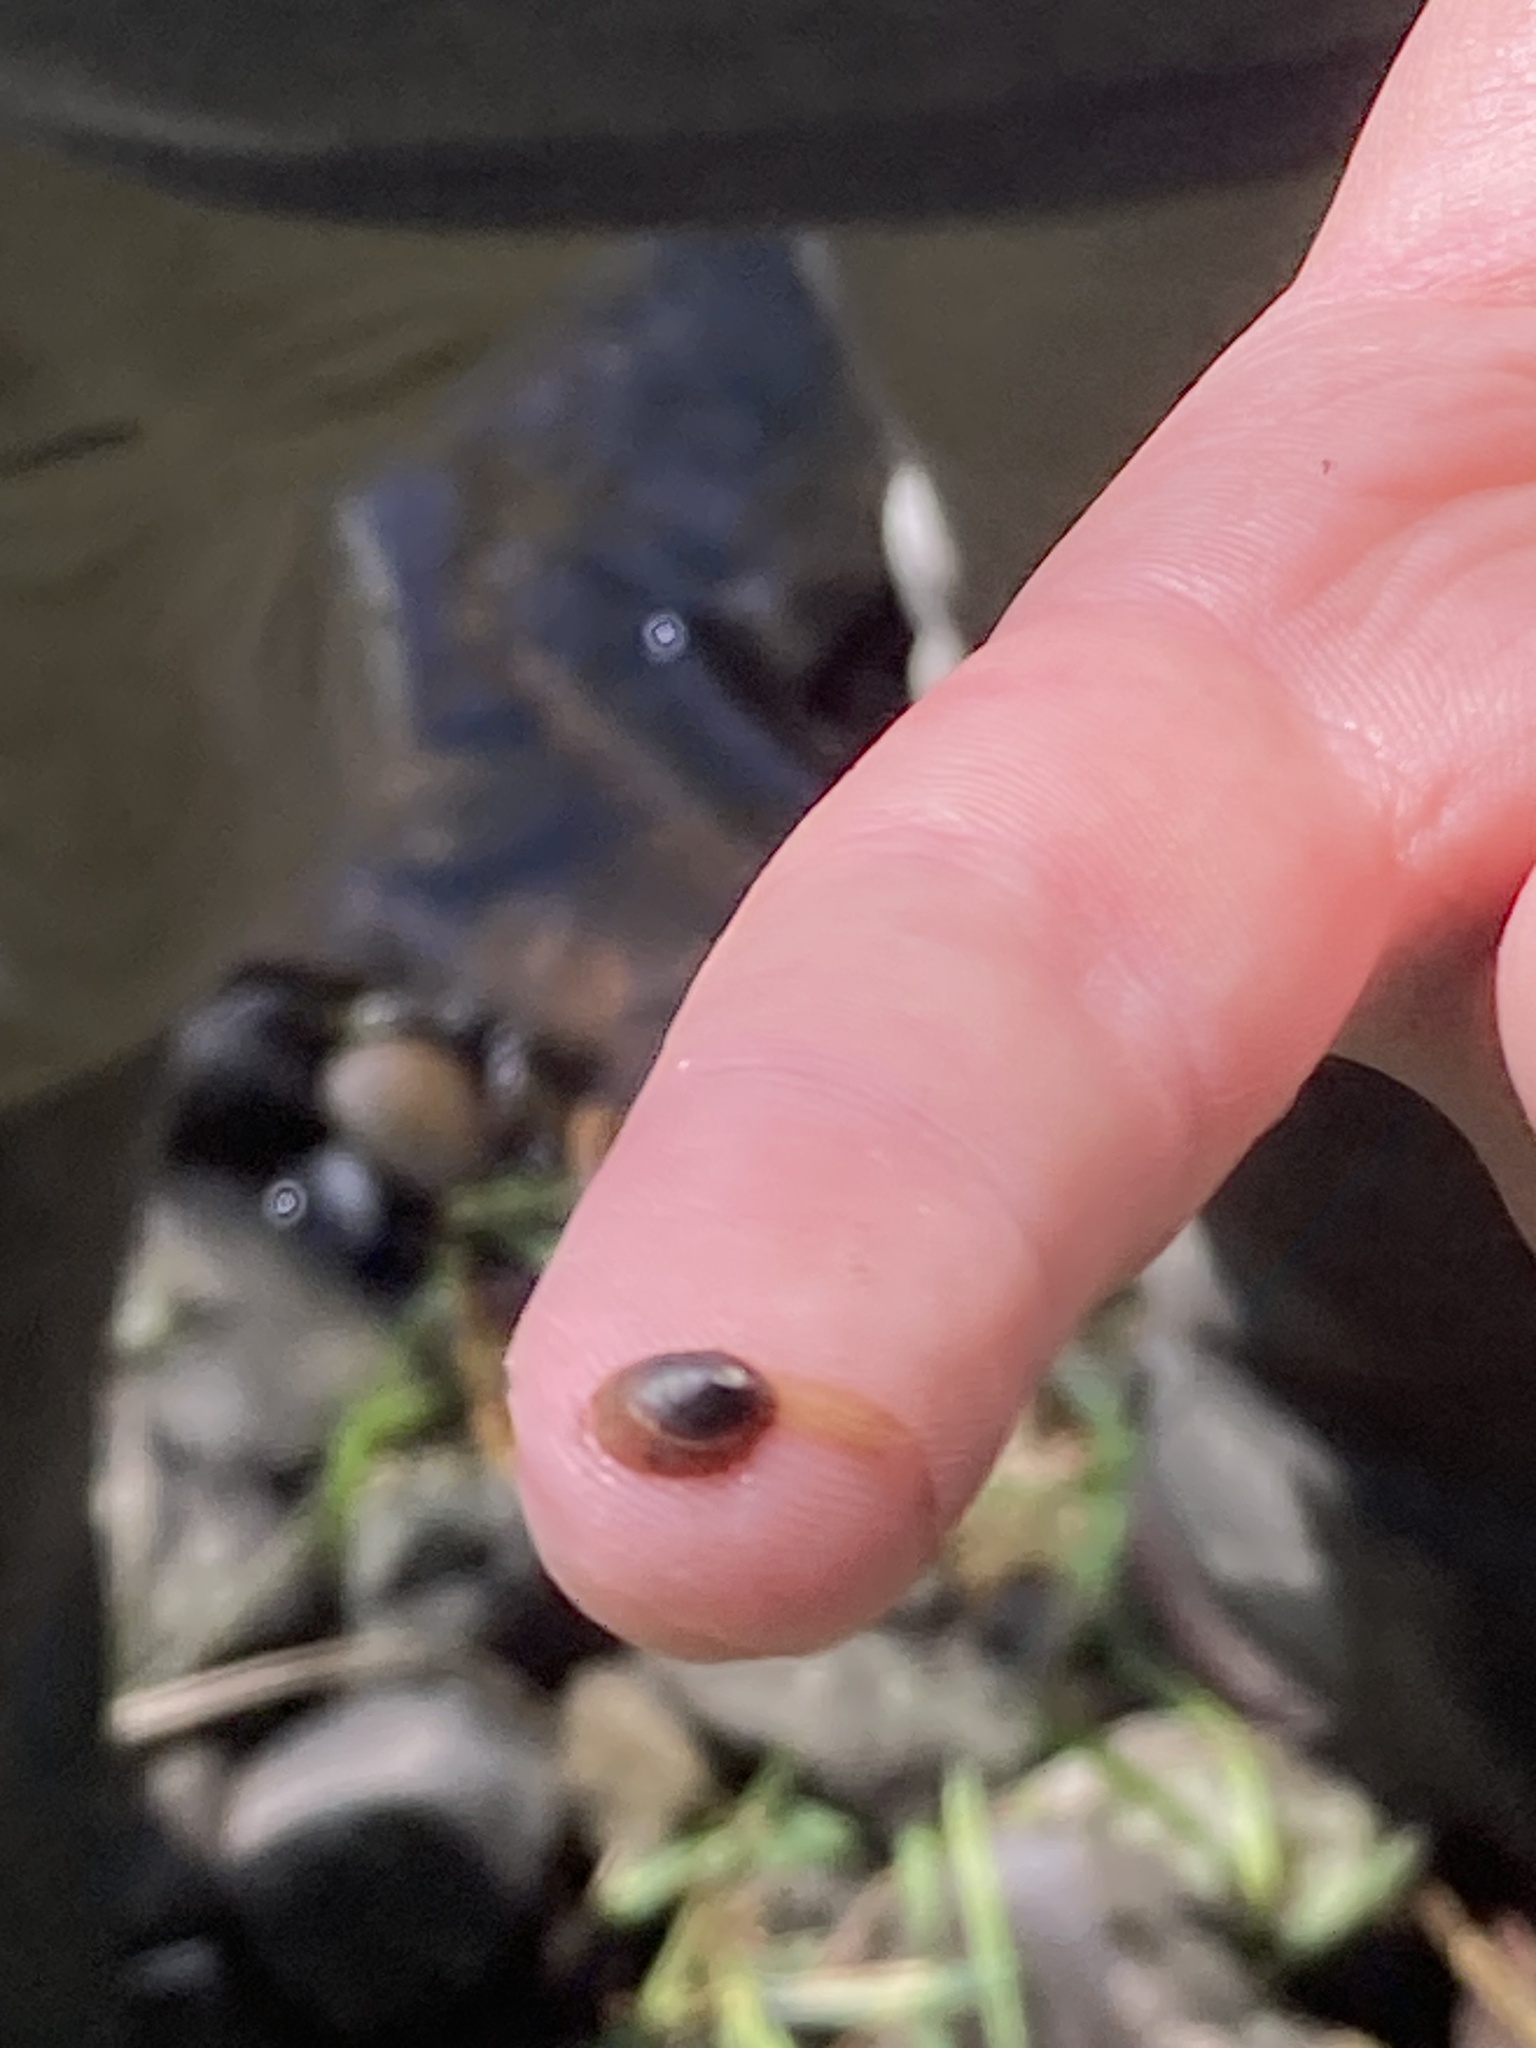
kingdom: Animalia
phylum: Mollusca
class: Gastropoda
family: Planorbidae
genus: Ancylus
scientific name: Ancylus fluviatilis
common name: River limpet
